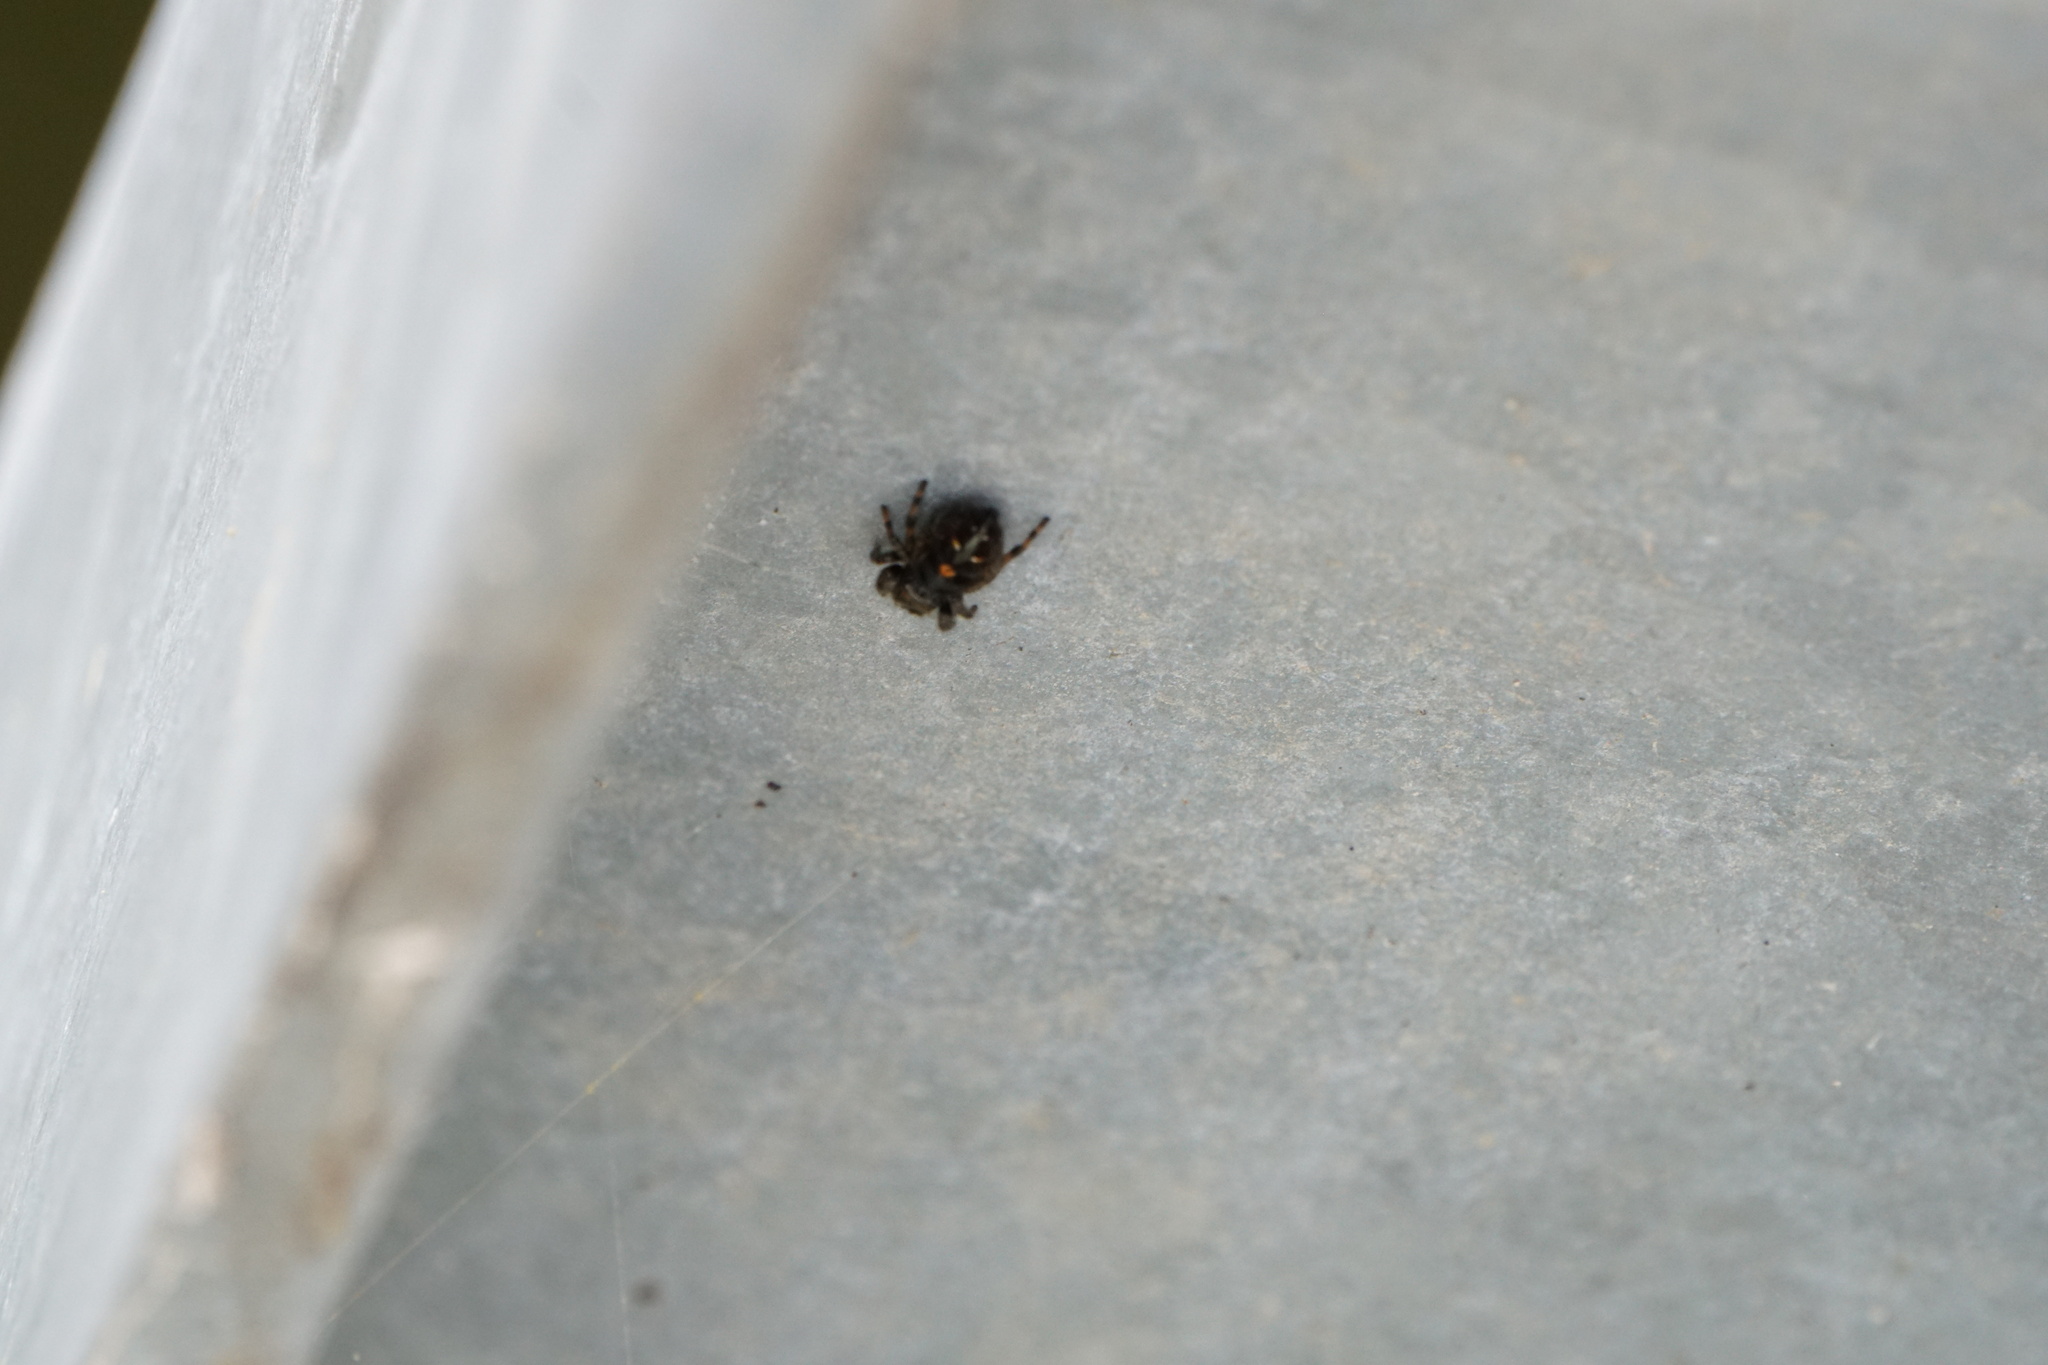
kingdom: Animalia
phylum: Arthropoda
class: Arachnida
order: Araneae
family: Salticidae
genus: Phidippus
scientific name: Phidippus audax
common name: Bold jumper
